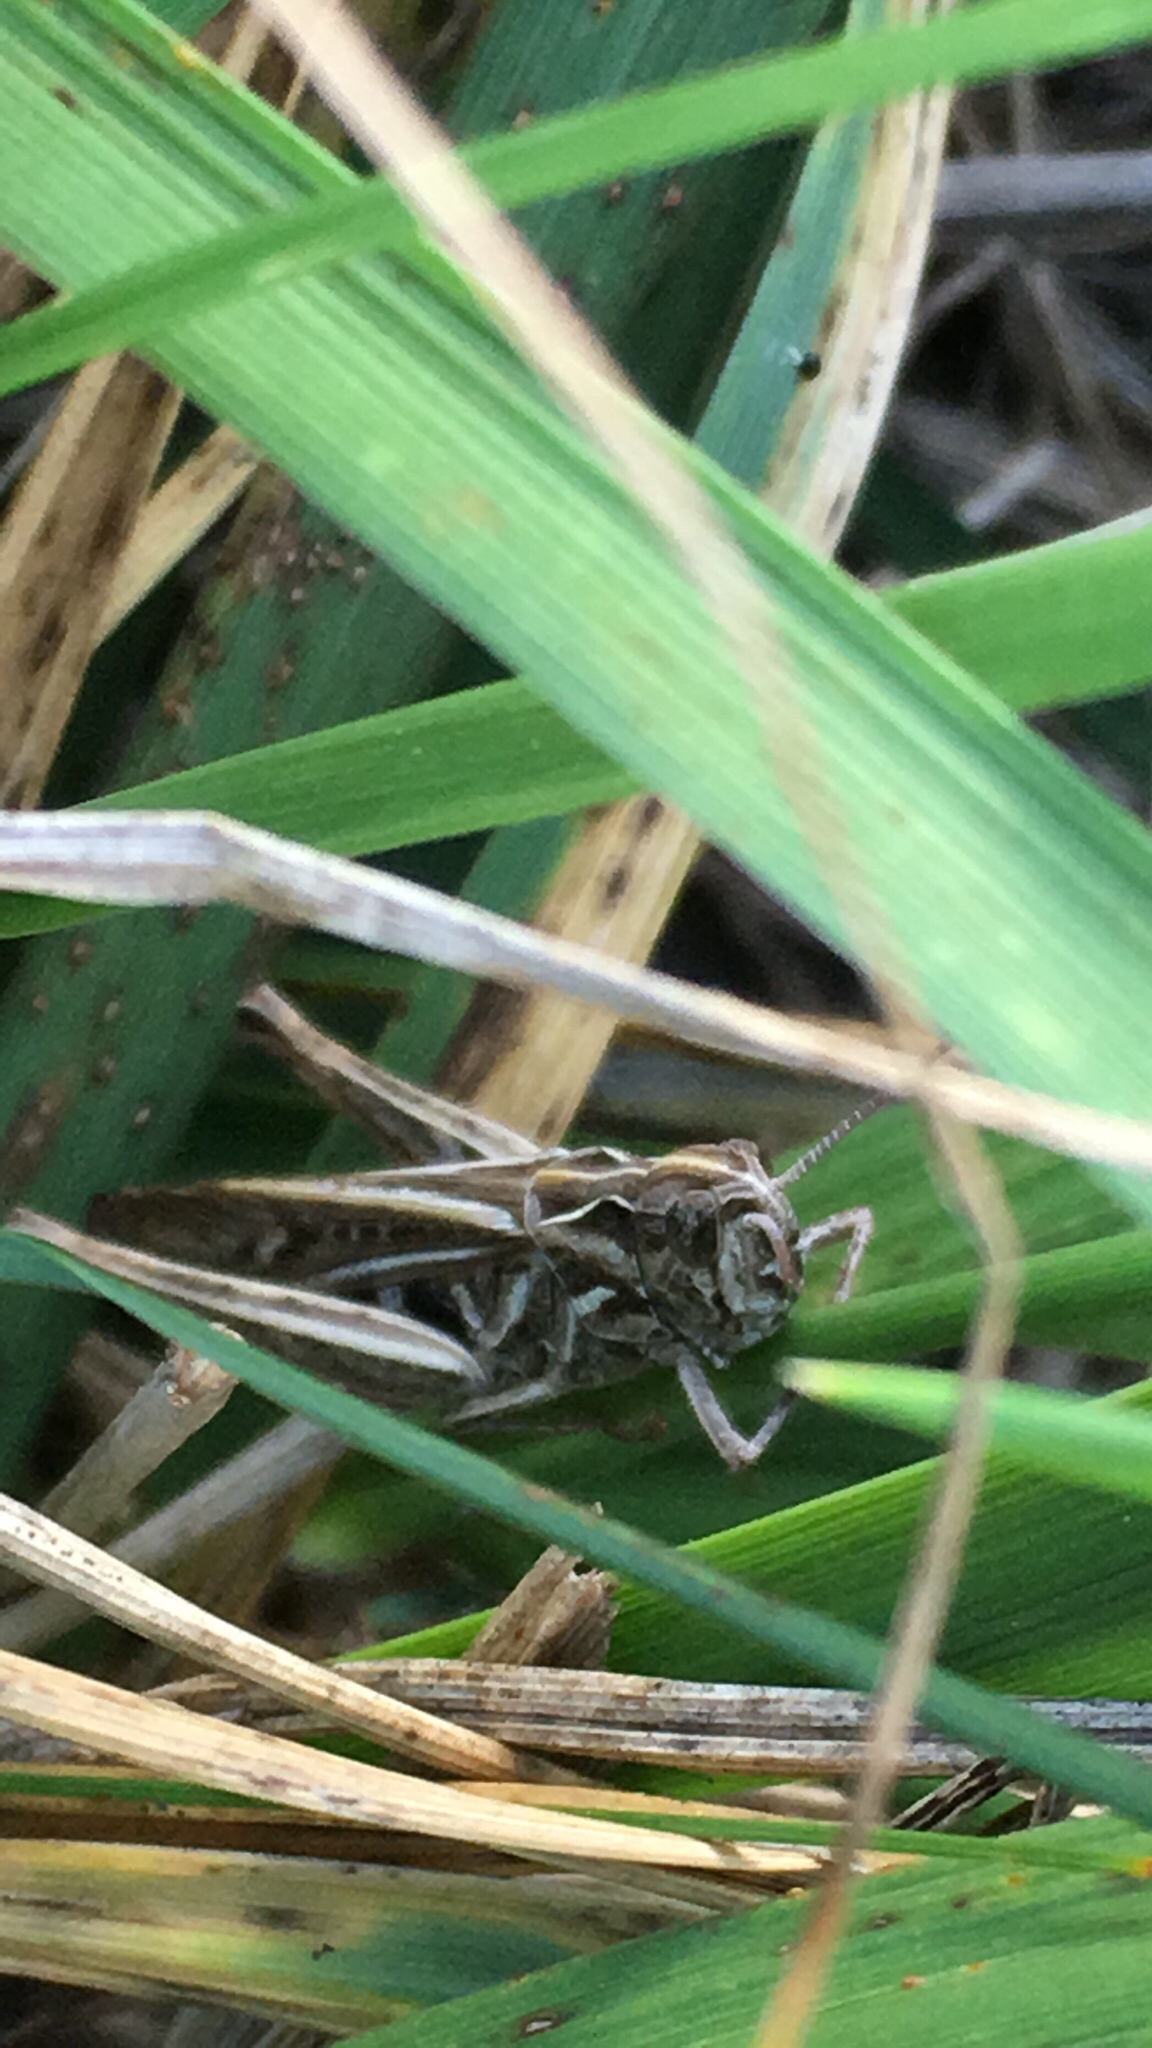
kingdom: Animalia
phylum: Arthropoda
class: Insecta
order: Orthoptera
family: Acrididae
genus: Glyptobothrus
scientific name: Glyptobothrus
